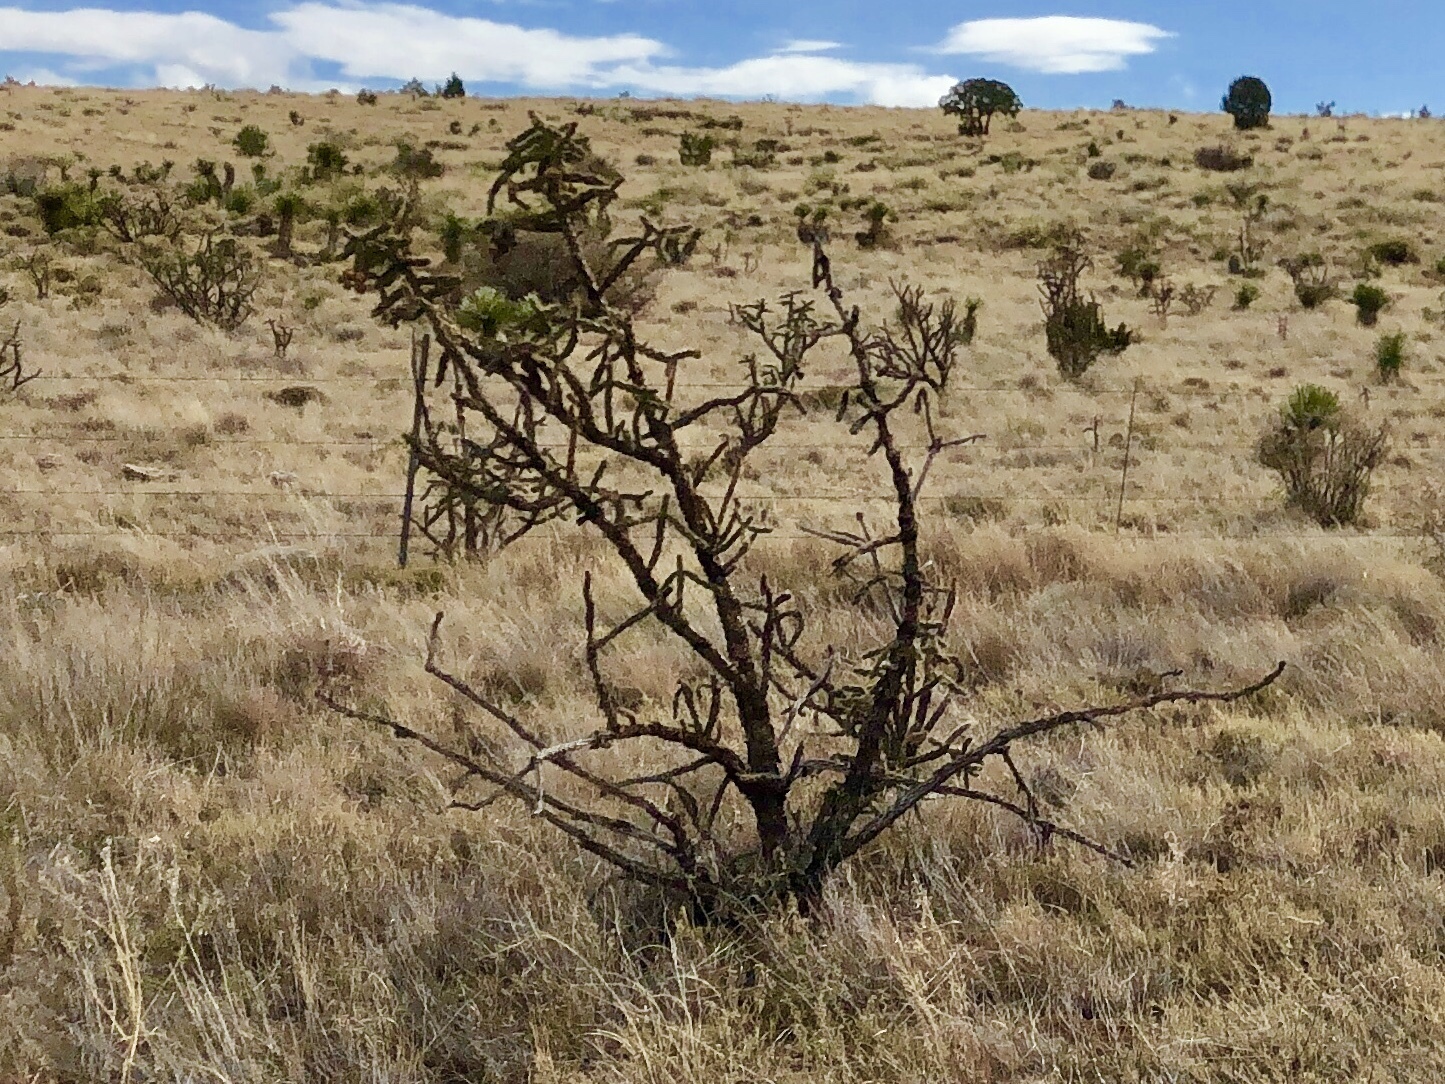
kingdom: Plantae
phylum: Tracheophyta
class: Magnoliopsida
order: Caryophyllales
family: Cactaceae
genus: Cylindropuntia
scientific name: Cylindropuntia imbricata
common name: Candelabrum cactus
